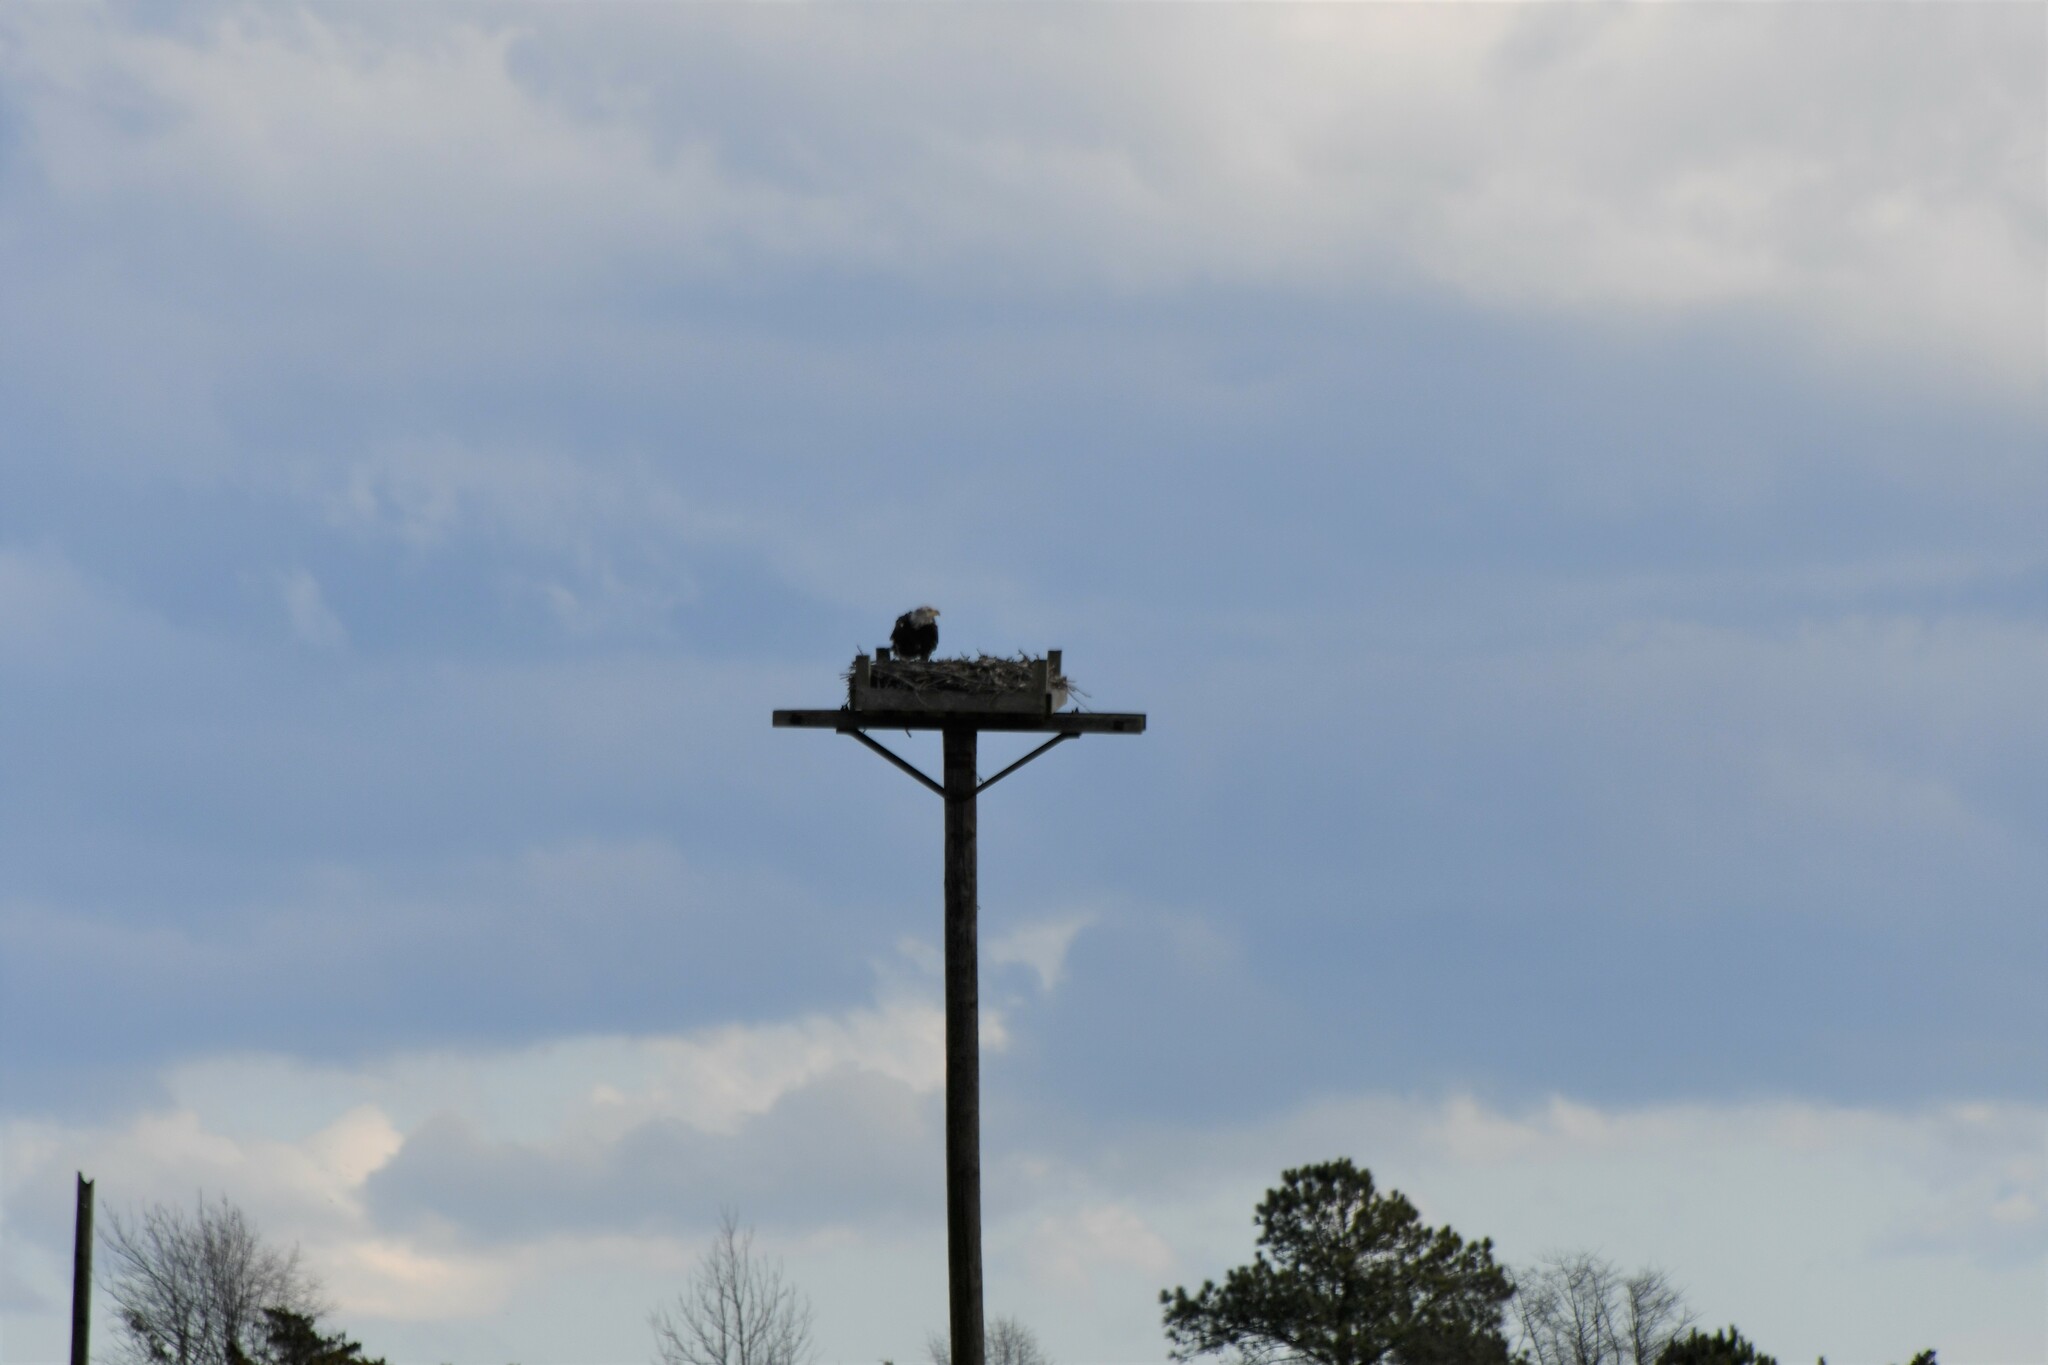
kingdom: Animalia
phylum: Chordata
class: Aves
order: Accipitriformes
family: Accipitridae
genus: Haliaeetus
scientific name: Haliaeetus leucocephalus
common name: Bald eagle
